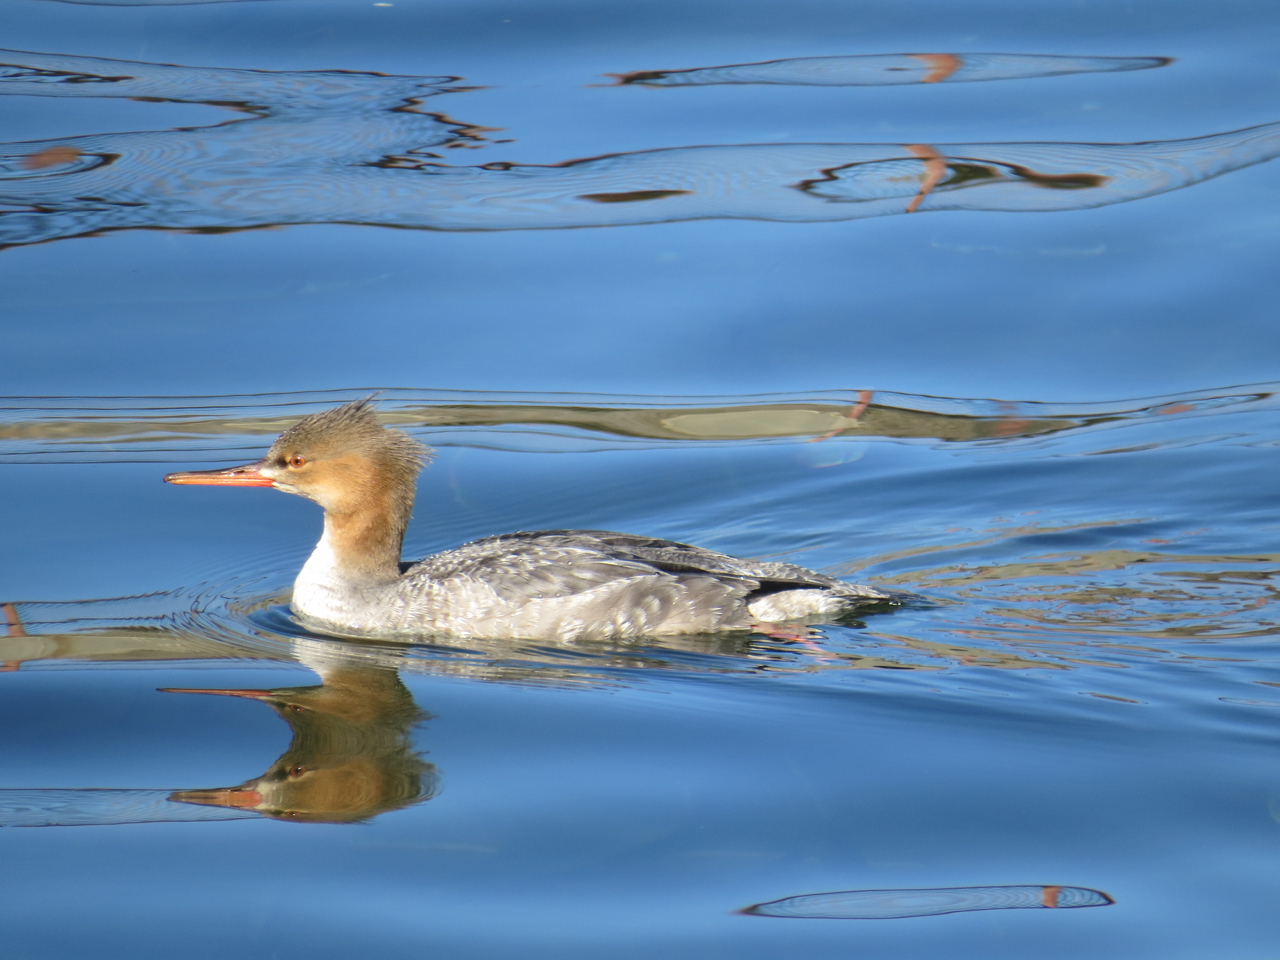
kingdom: Animalia
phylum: Chordata
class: Aves
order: Anseriformes
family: Anatidae
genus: Mergus
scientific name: Mergus serrator
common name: Red-breasted merganser
